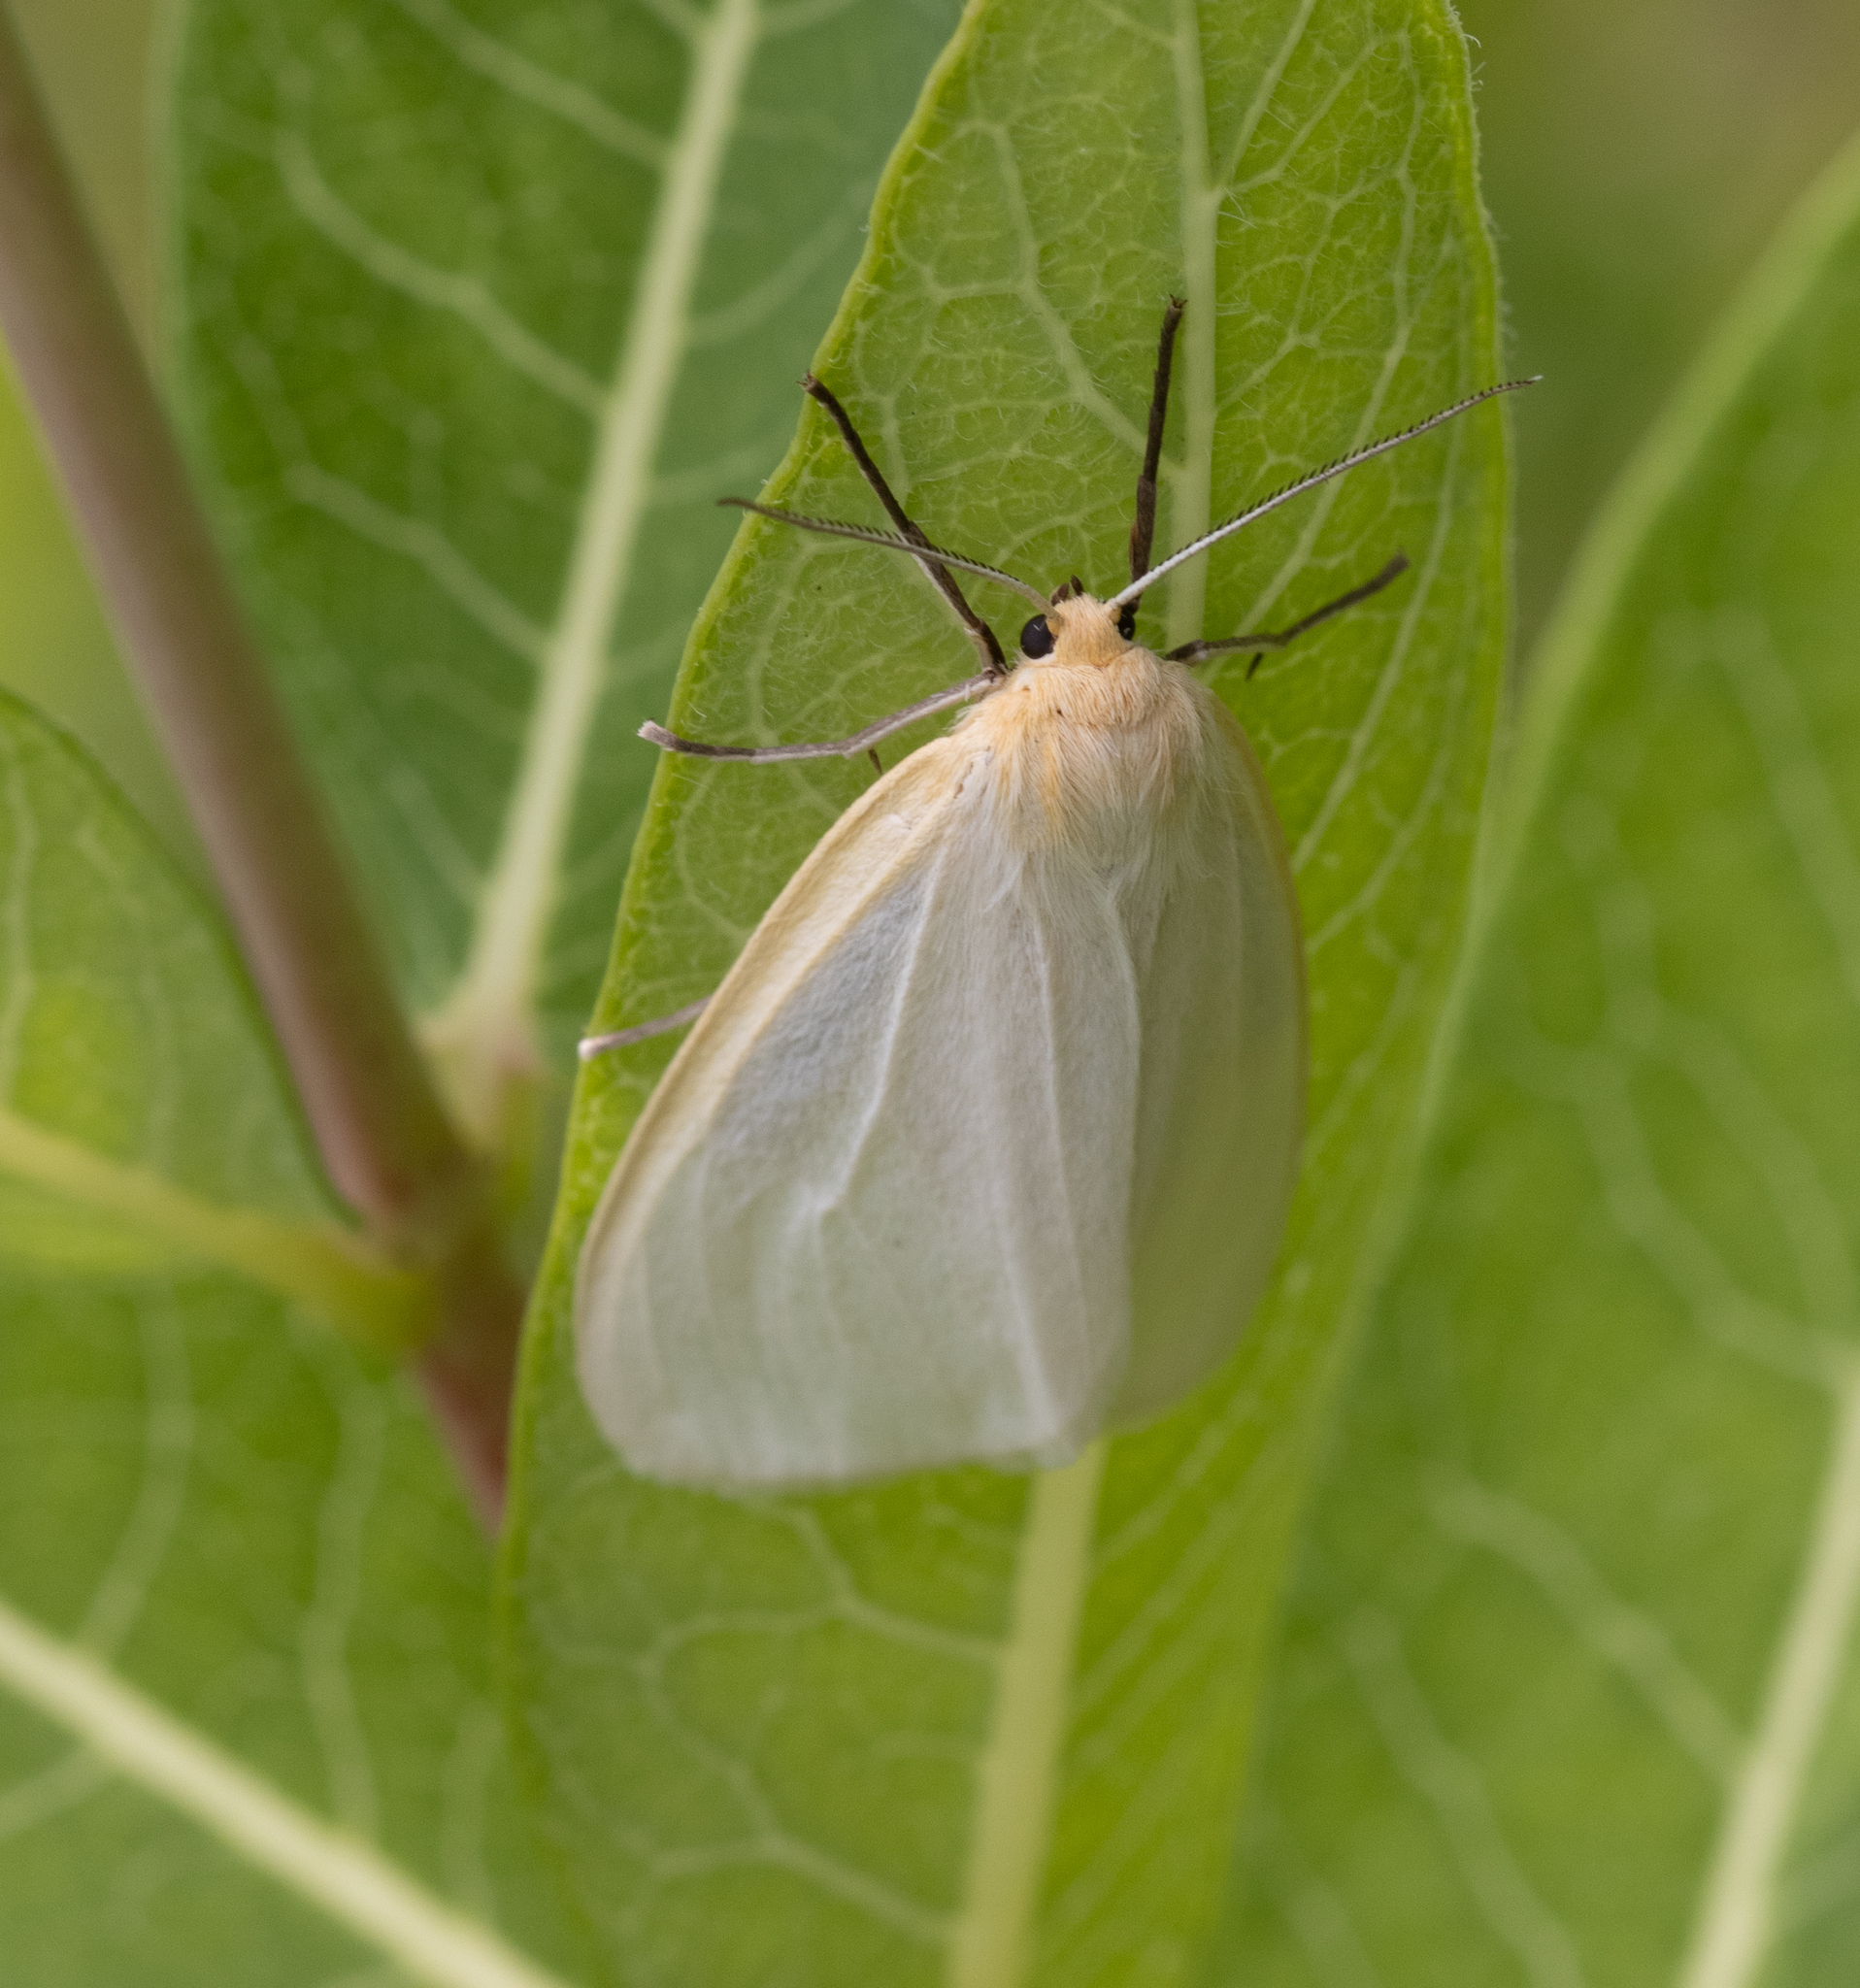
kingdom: Animalia
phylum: Arthropoda
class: Insecta
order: Lepidoptera
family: Erebidae
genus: Cycnia
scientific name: Cycnia tenera
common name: Delicate cycnia moth
